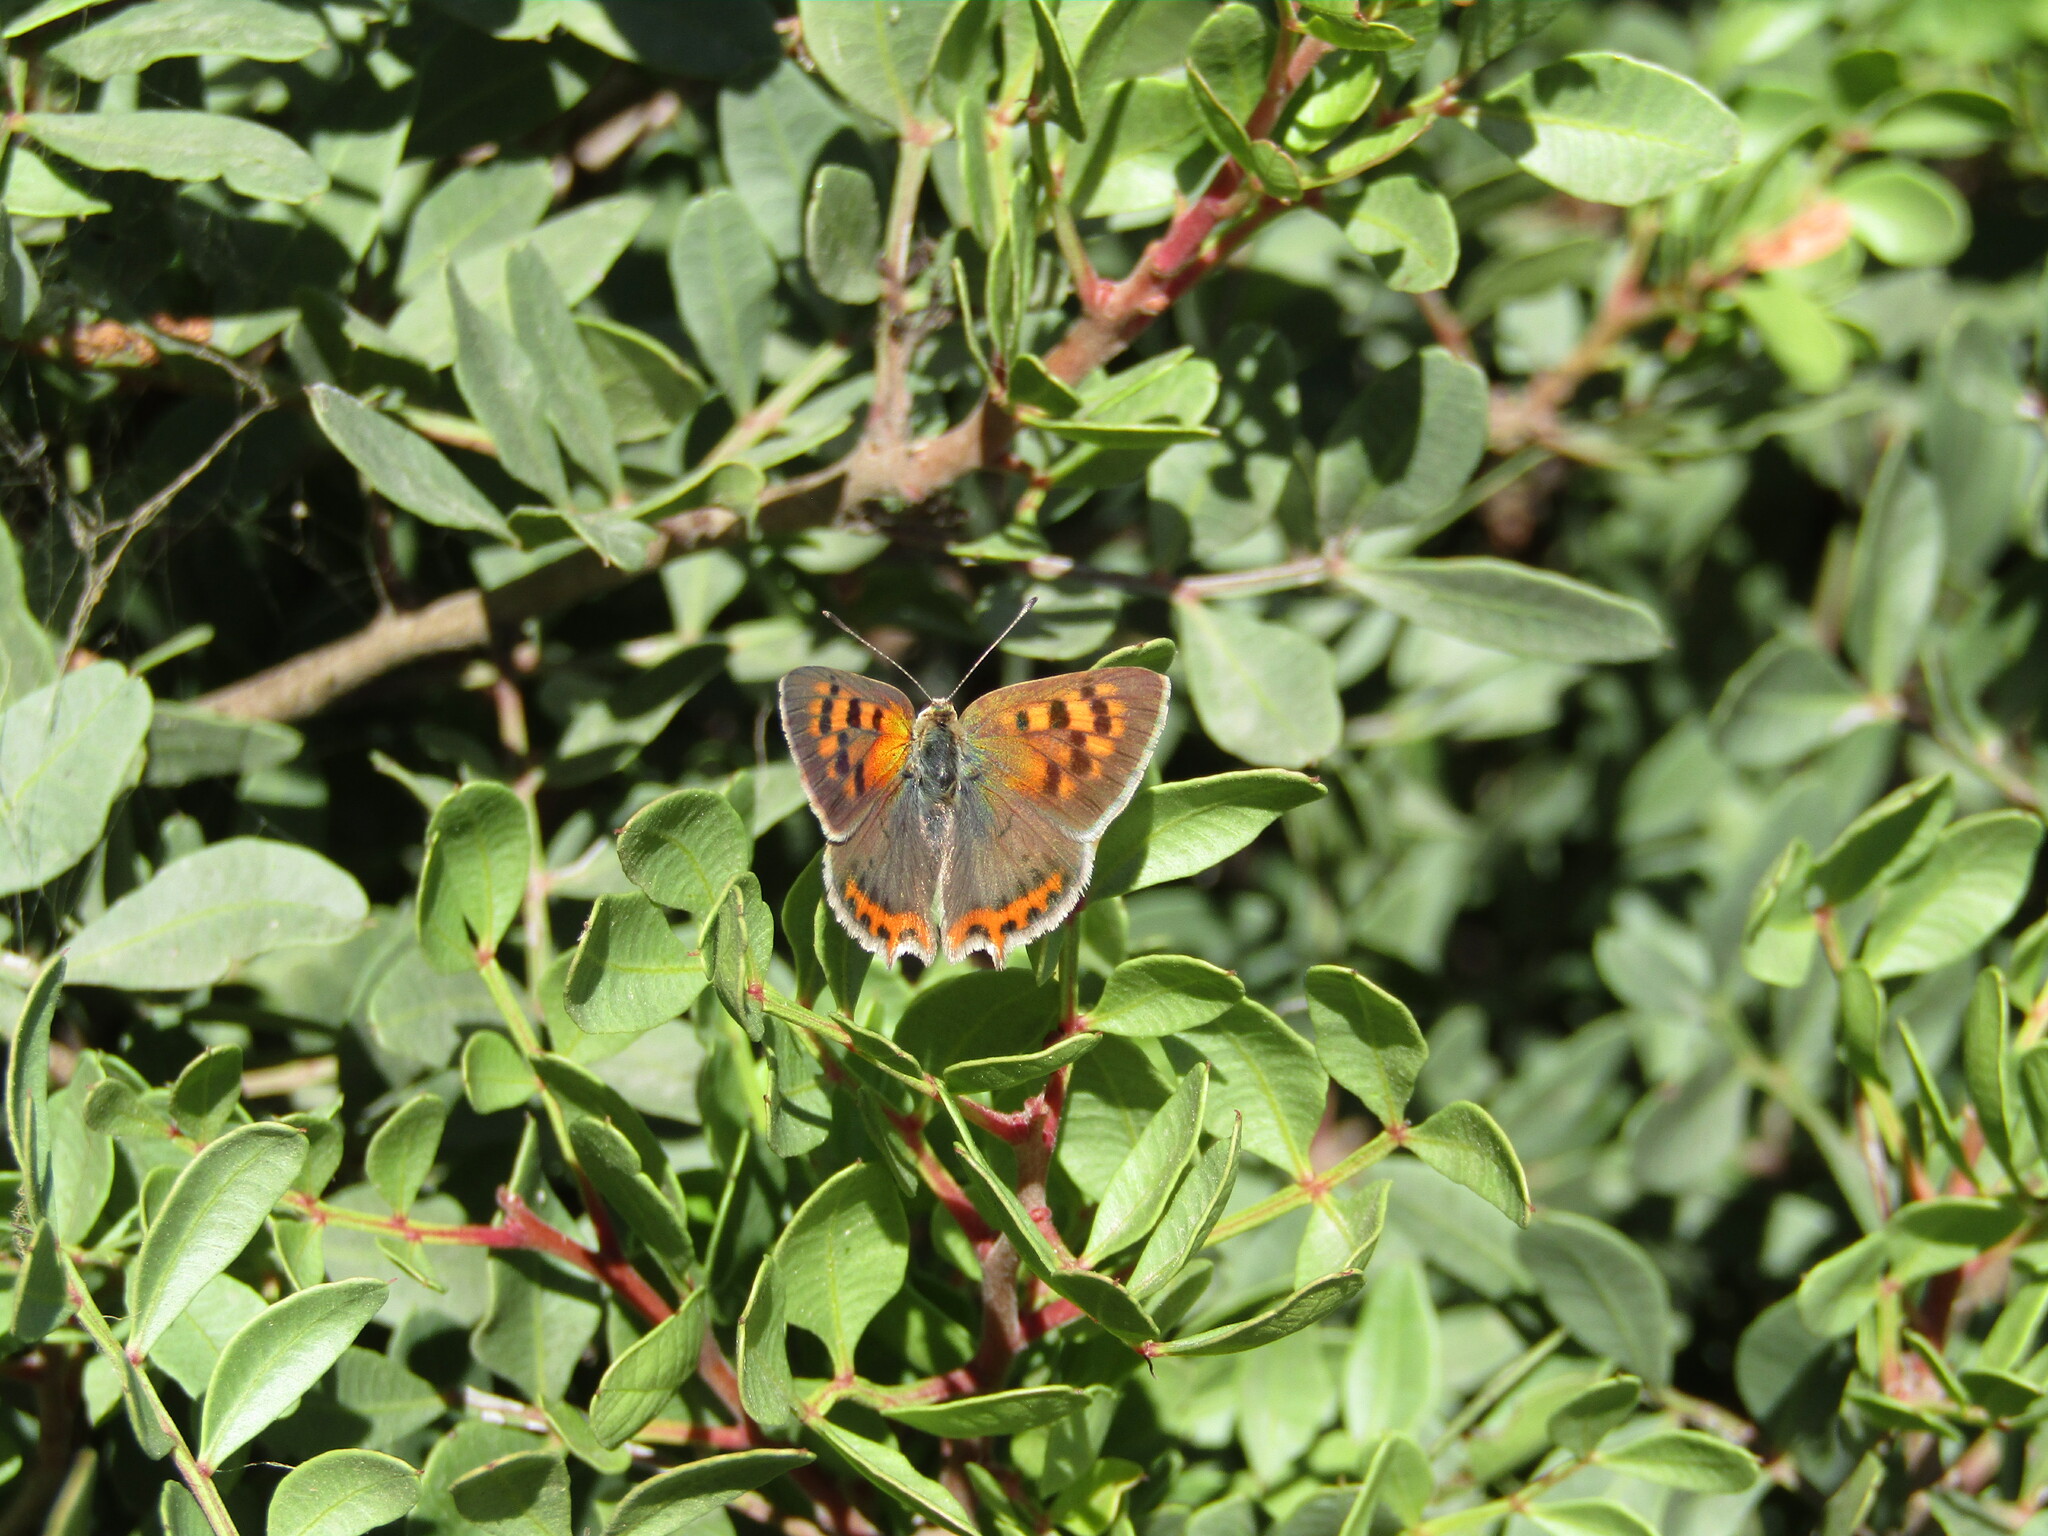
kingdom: Animalia
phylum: Arthropoda
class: Insecta
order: Lepidoptera
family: Lycaenidae
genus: Lycaena
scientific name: Lycaena phlaeas
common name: Small copper
